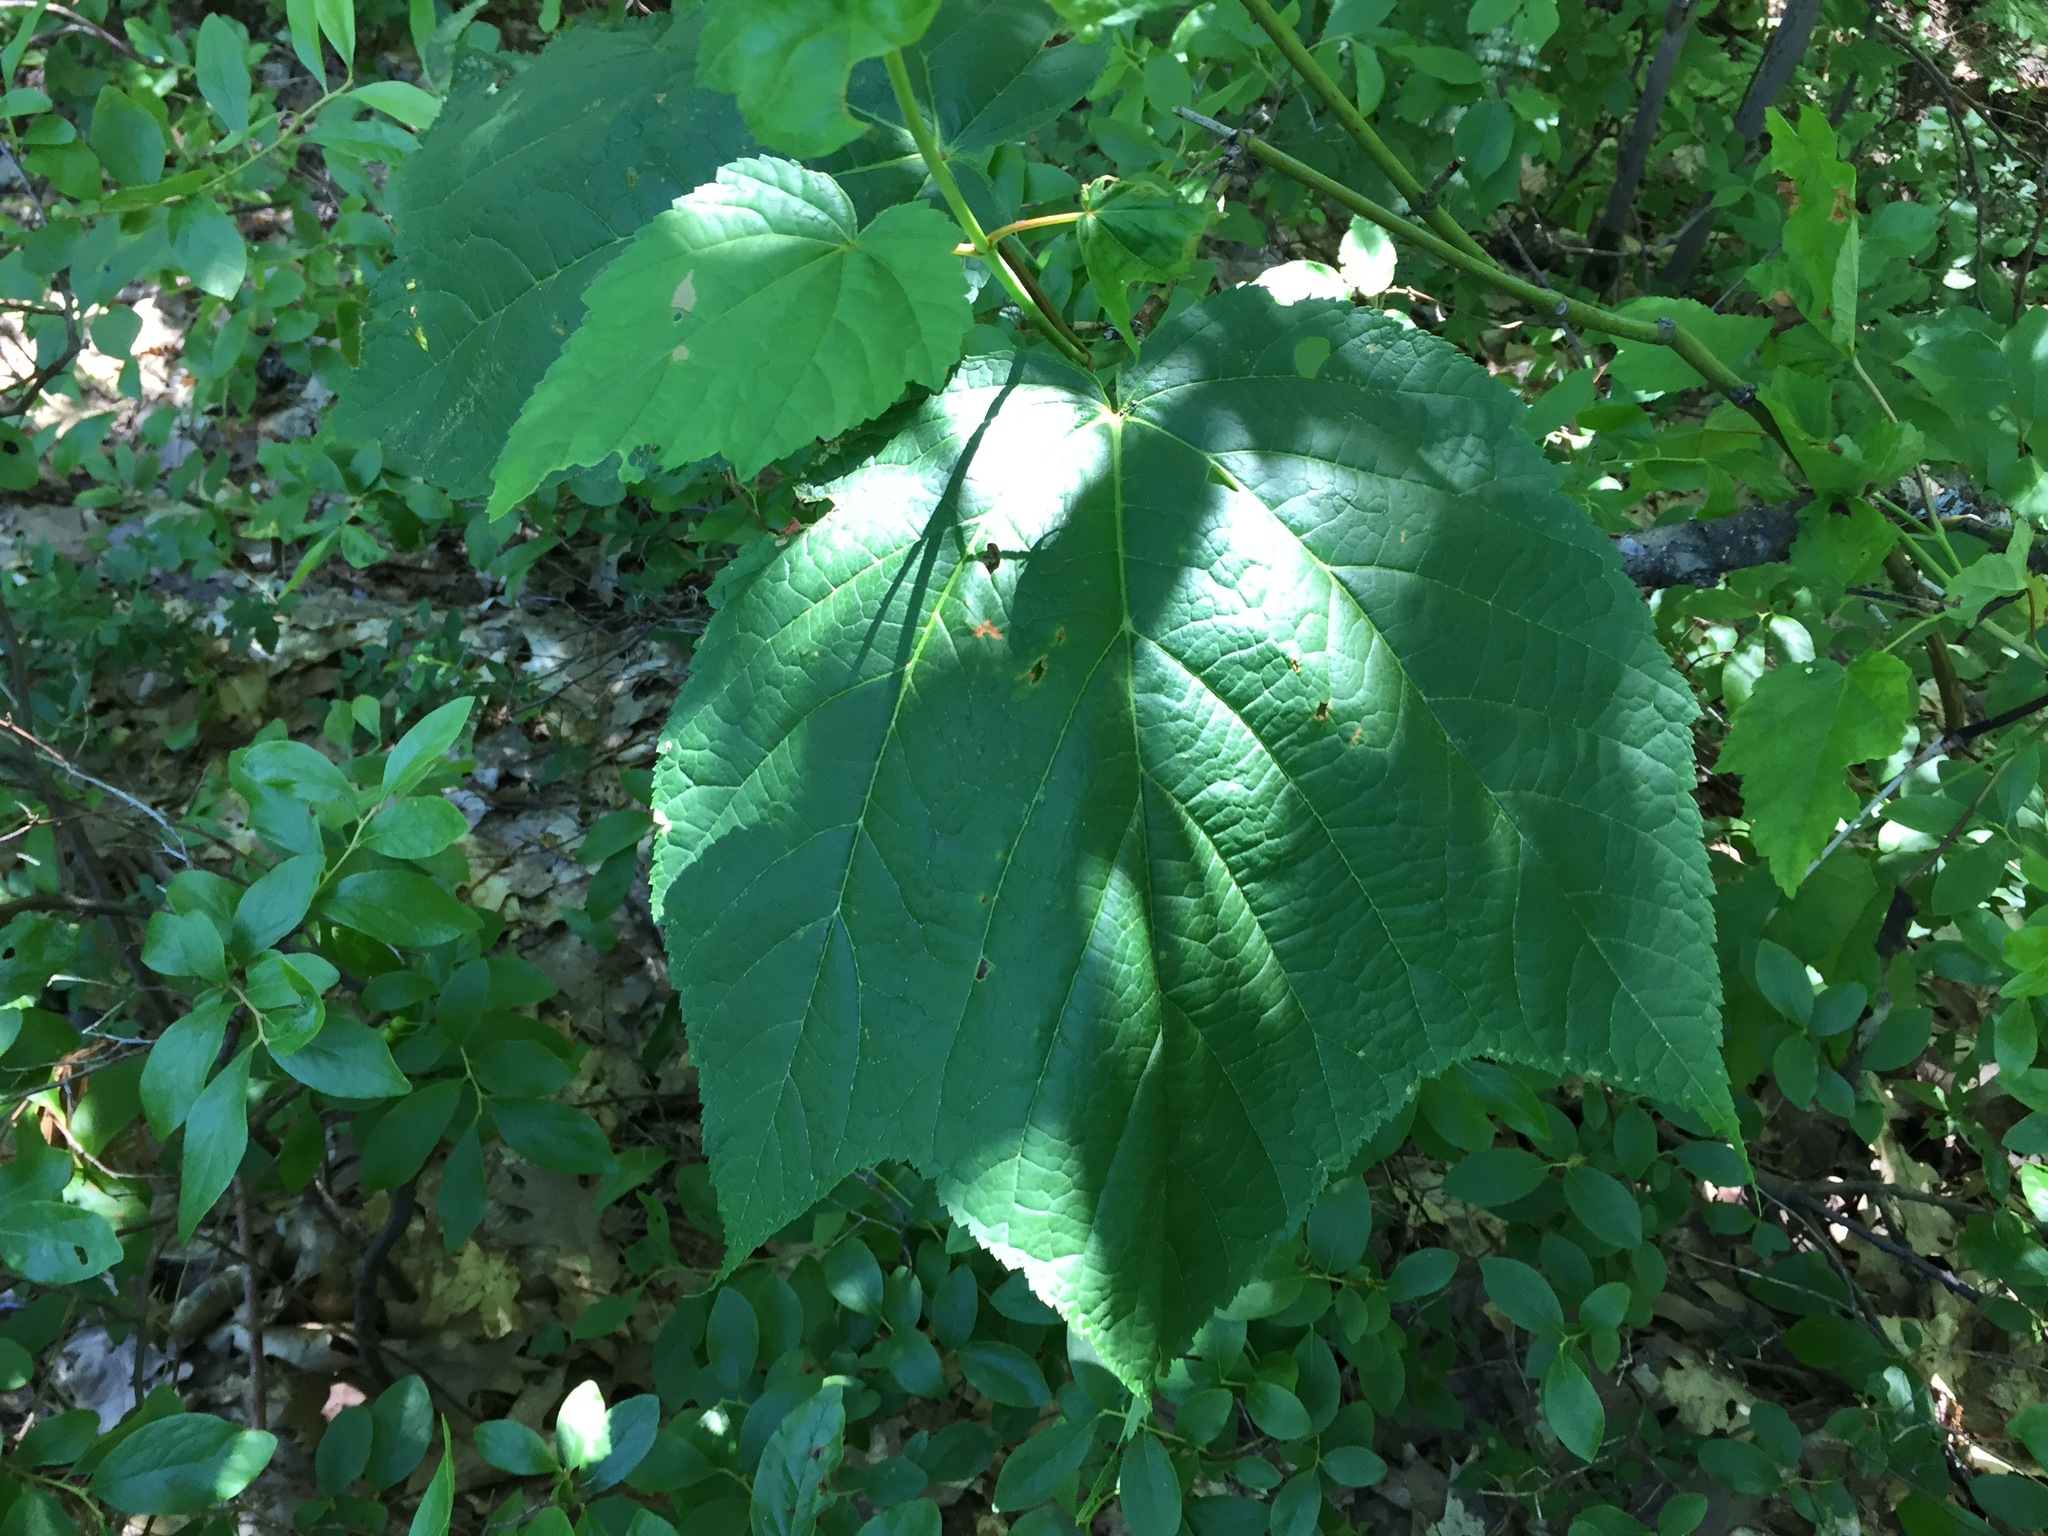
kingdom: Plantae
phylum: Tracheophyta
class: Magnoliopsida
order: Sapindales
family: Sapindaceae
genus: Acer
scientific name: Acer pensylvanicum
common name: Moosewood
